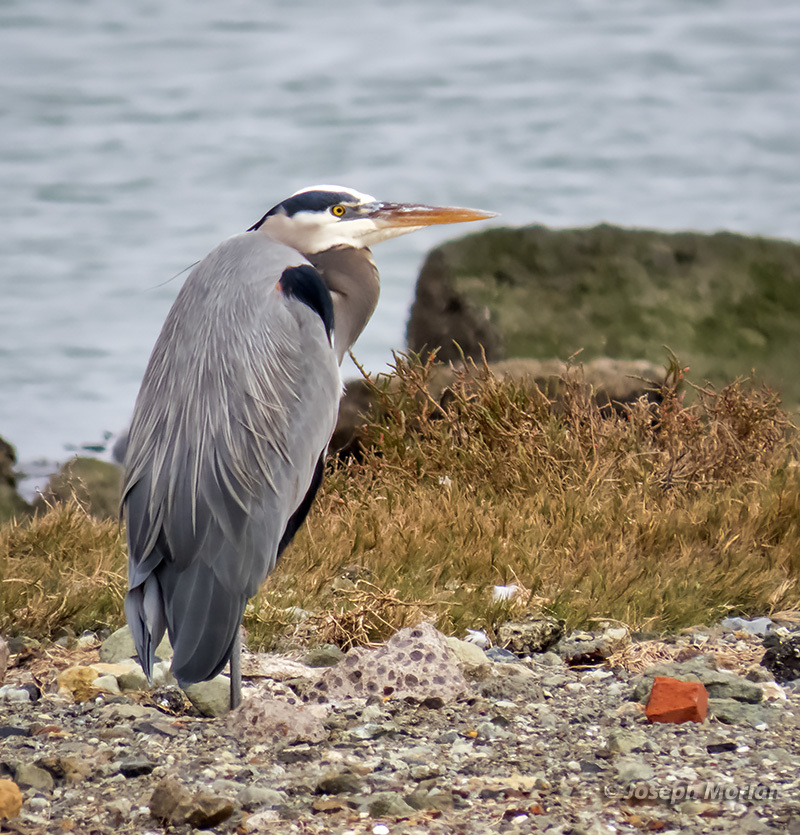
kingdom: Animalia
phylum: Chordata
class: Aves
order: Pelecaniformes
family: Ardeidae
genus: Ardea
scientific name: Ardea herodias
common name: Great blue heron
